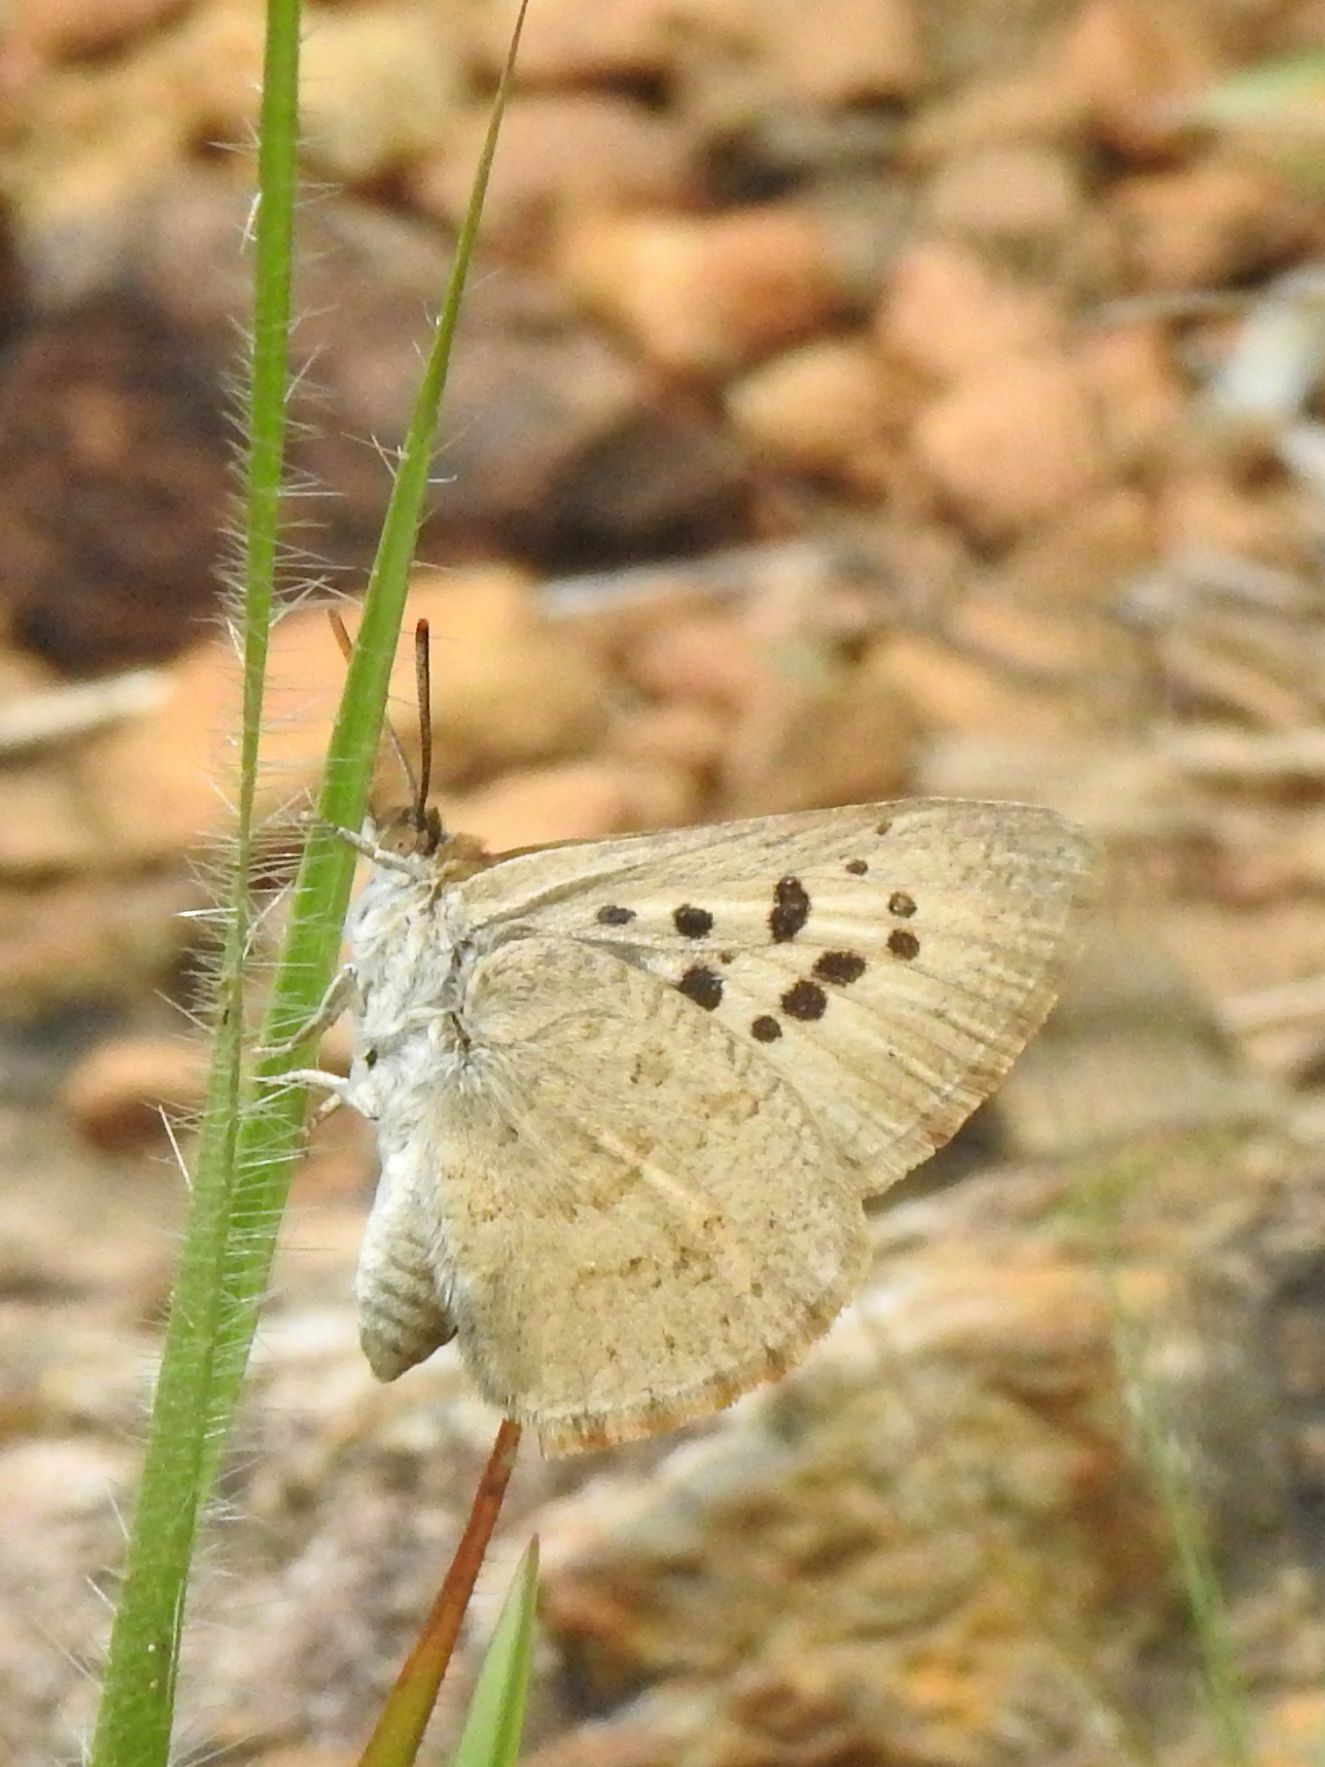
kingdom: Animalia
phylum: Arthropoda
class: Insecta
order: Lepidoptera
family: Lycaenidae
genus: Thestor
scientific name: Thestor basutus
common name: Basuto skolly
